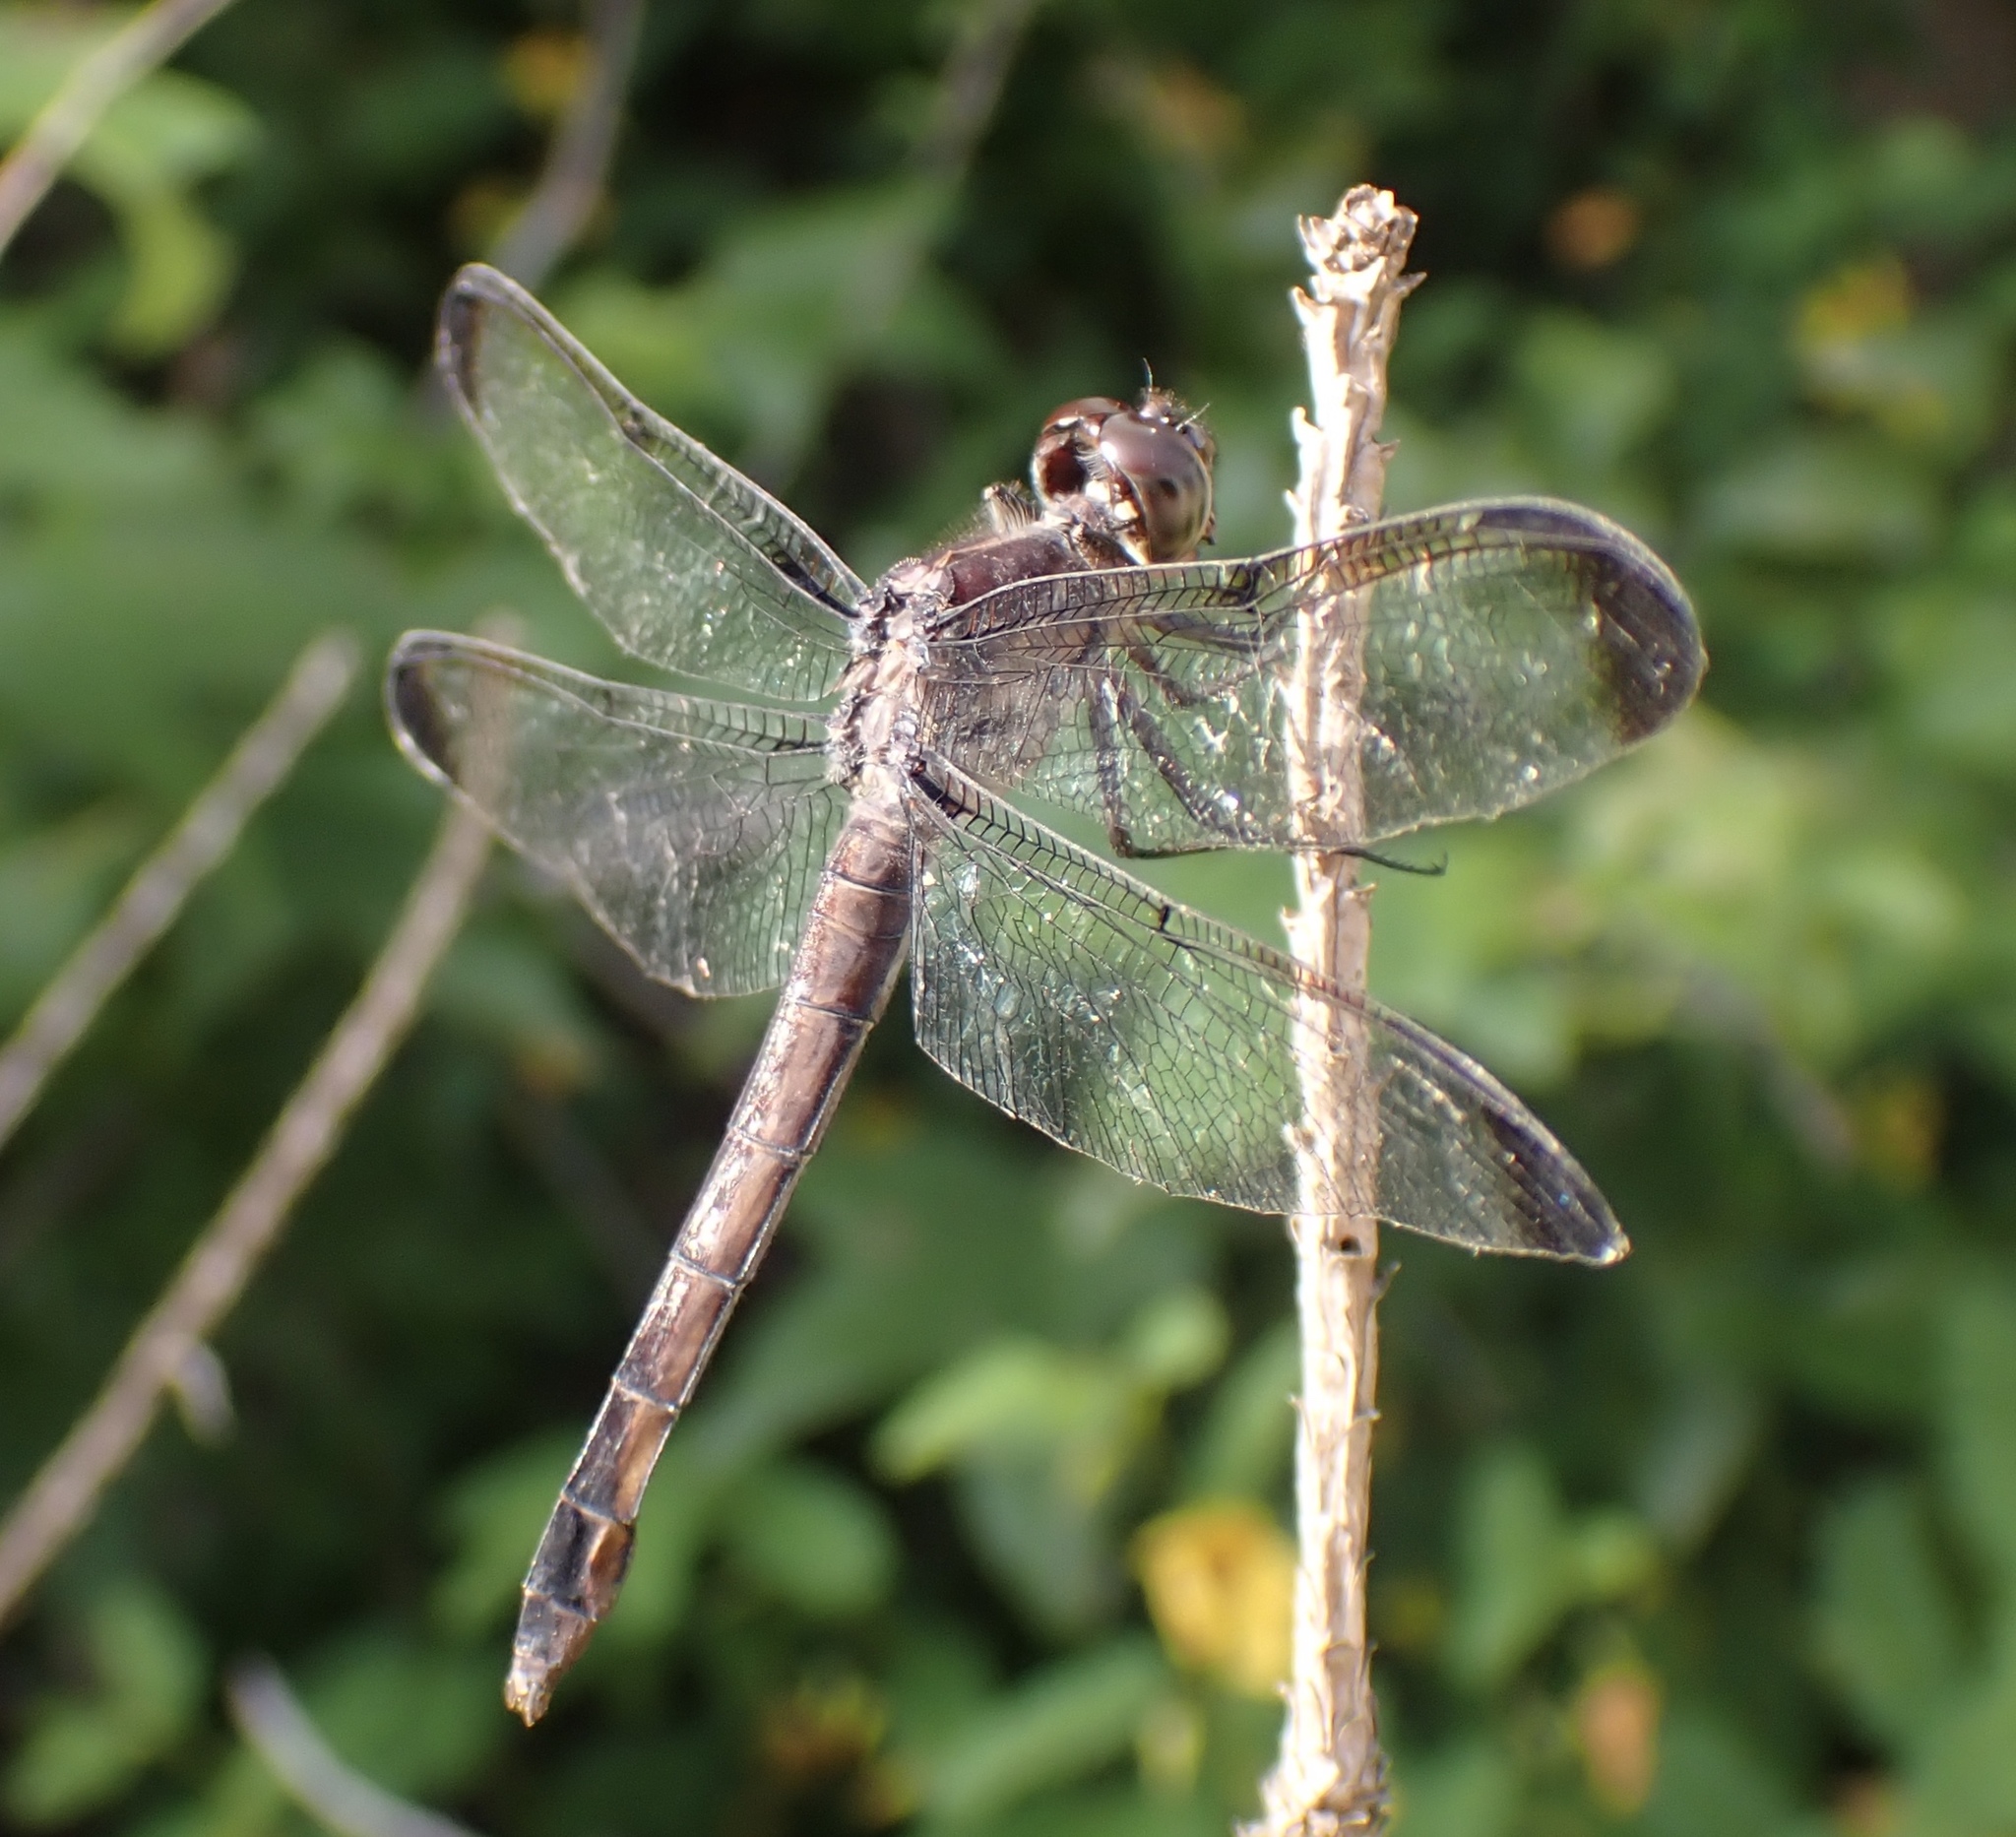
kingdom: Animalia
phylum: Arthropoda
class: Insecta
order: Odonata
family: Libellulidae
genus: Libellula
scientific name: Libellula incesta
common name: Slaty skimmer
